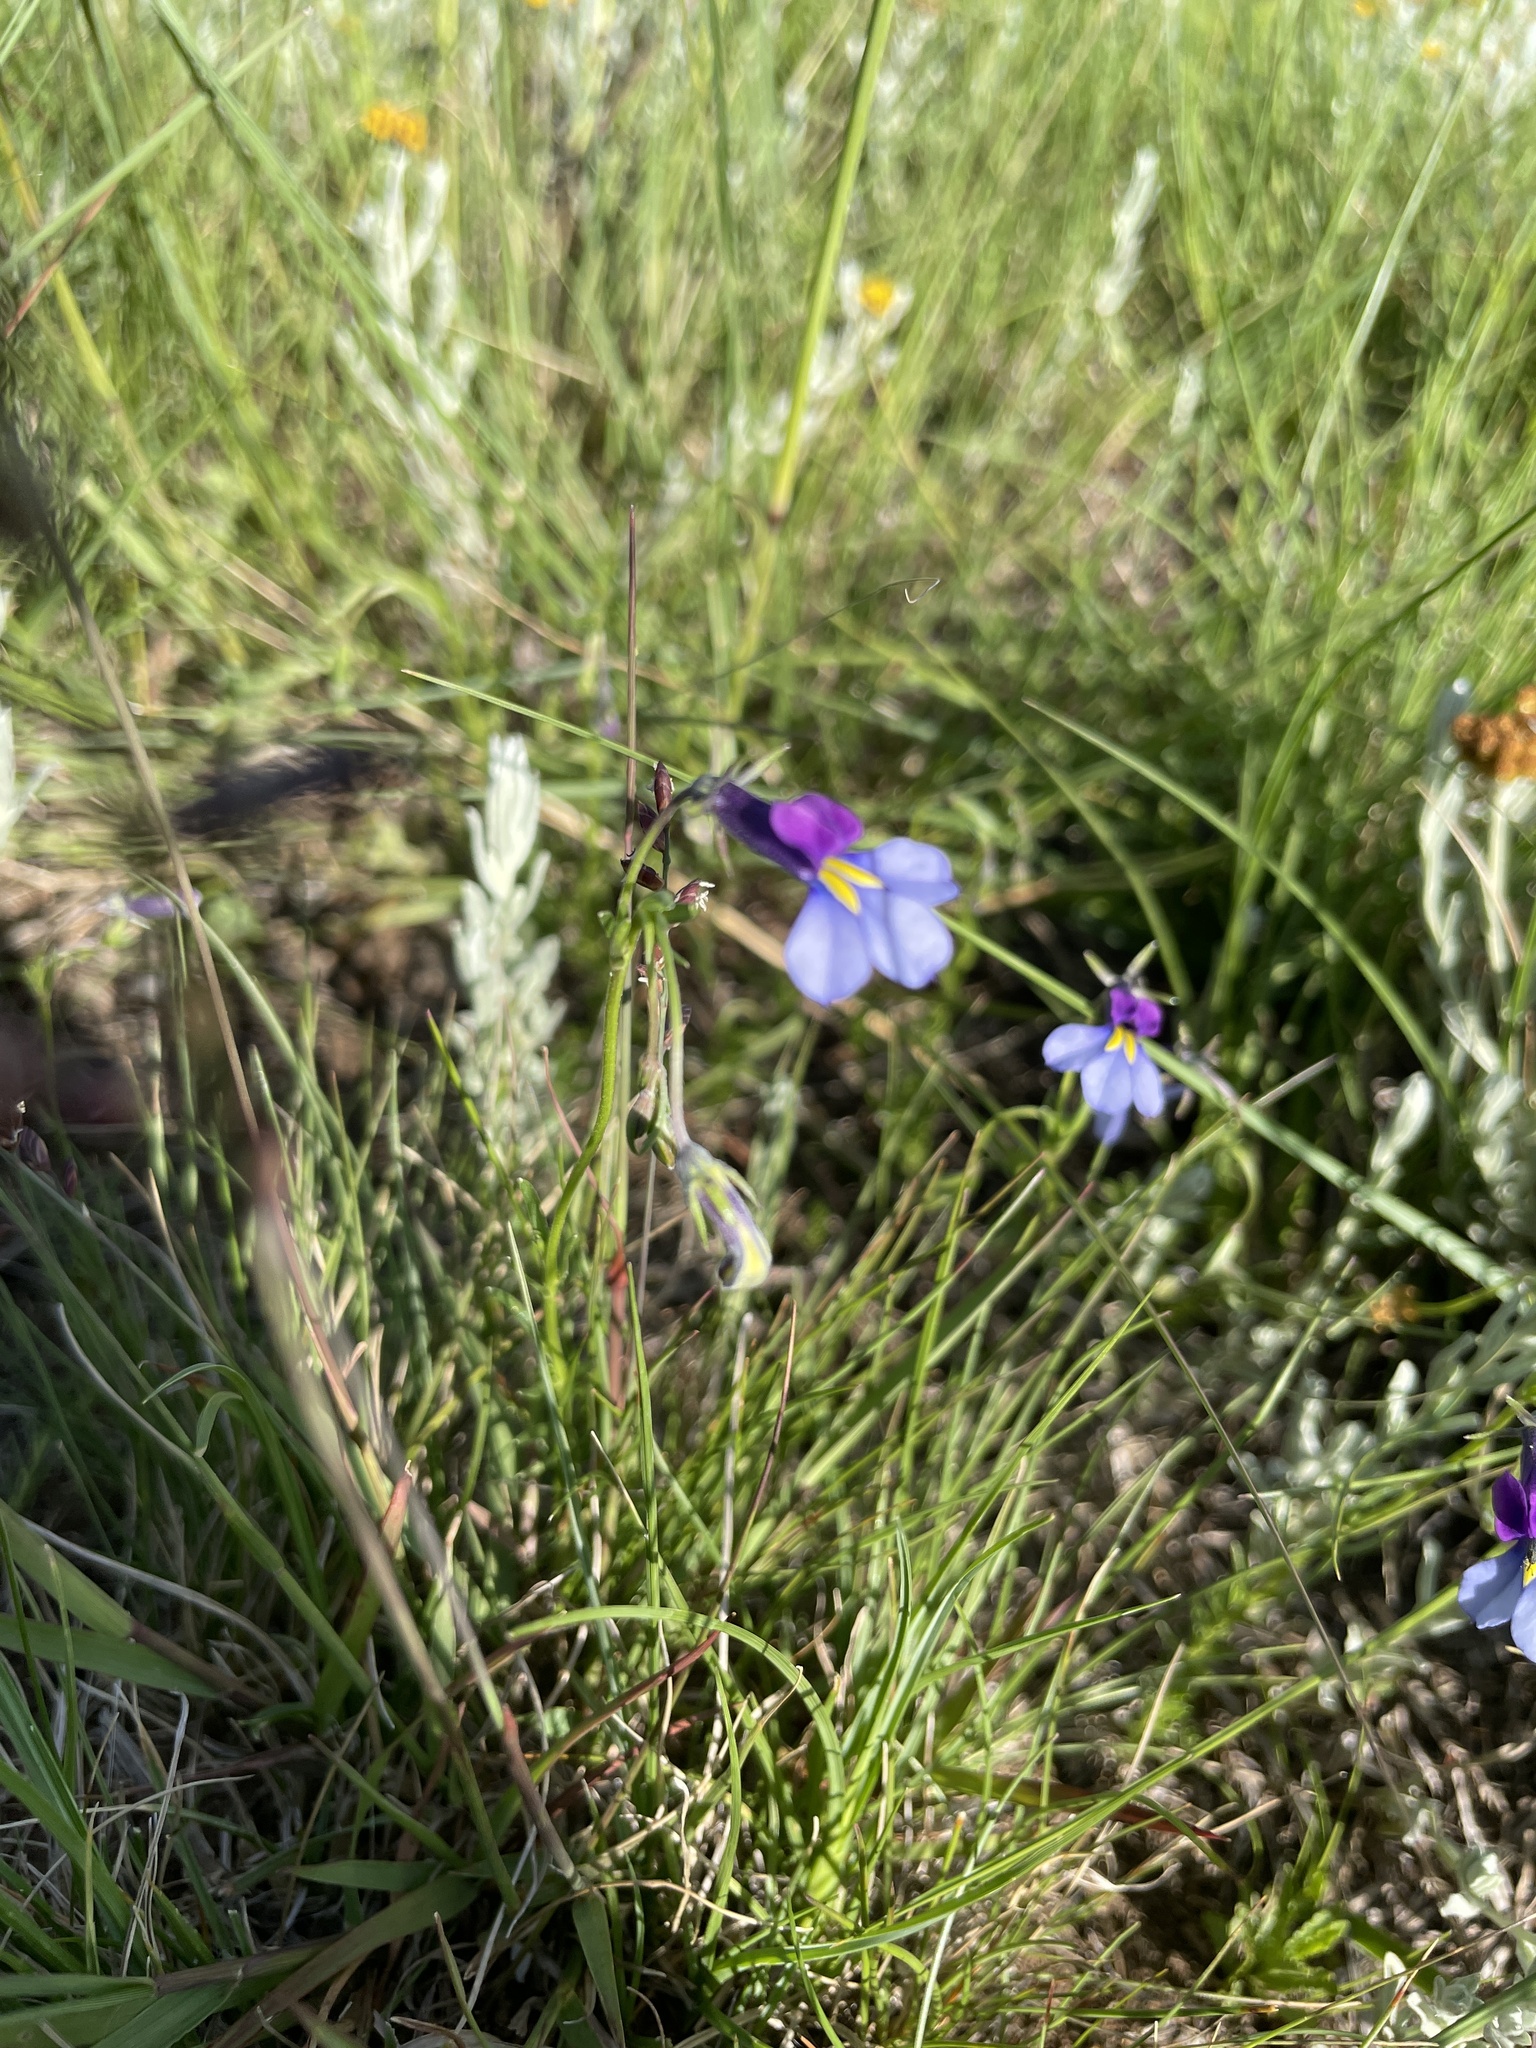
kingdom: Plantae
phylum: Tracheophyta
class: Magnoliopsida
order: Asterales
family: Campanulaceae
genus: Monopsis
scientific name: Monopsis decipiens
